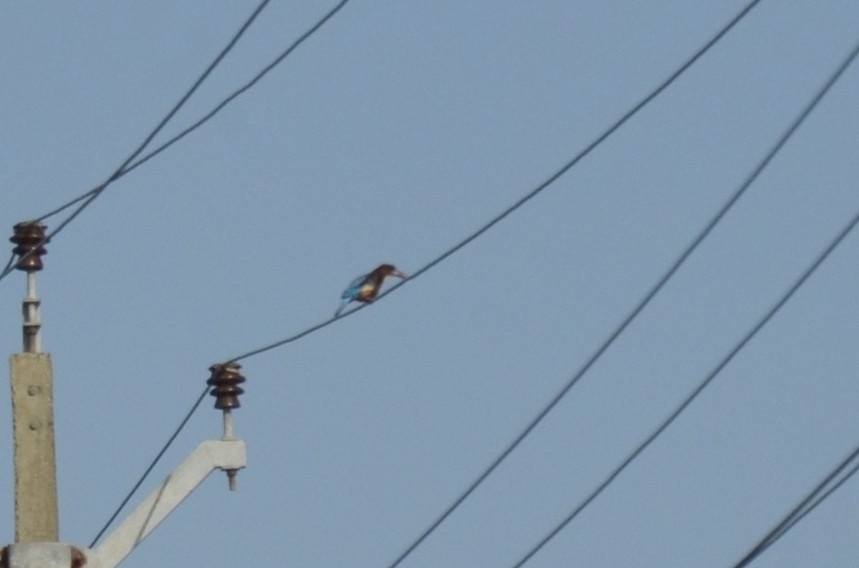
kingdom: Animalia
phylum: Chordata
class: Aves
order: Coraciiformes
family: Alcedinidae
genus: Halcyon
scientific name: Halcyon smyrnensis
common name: White-throated kingfisher
